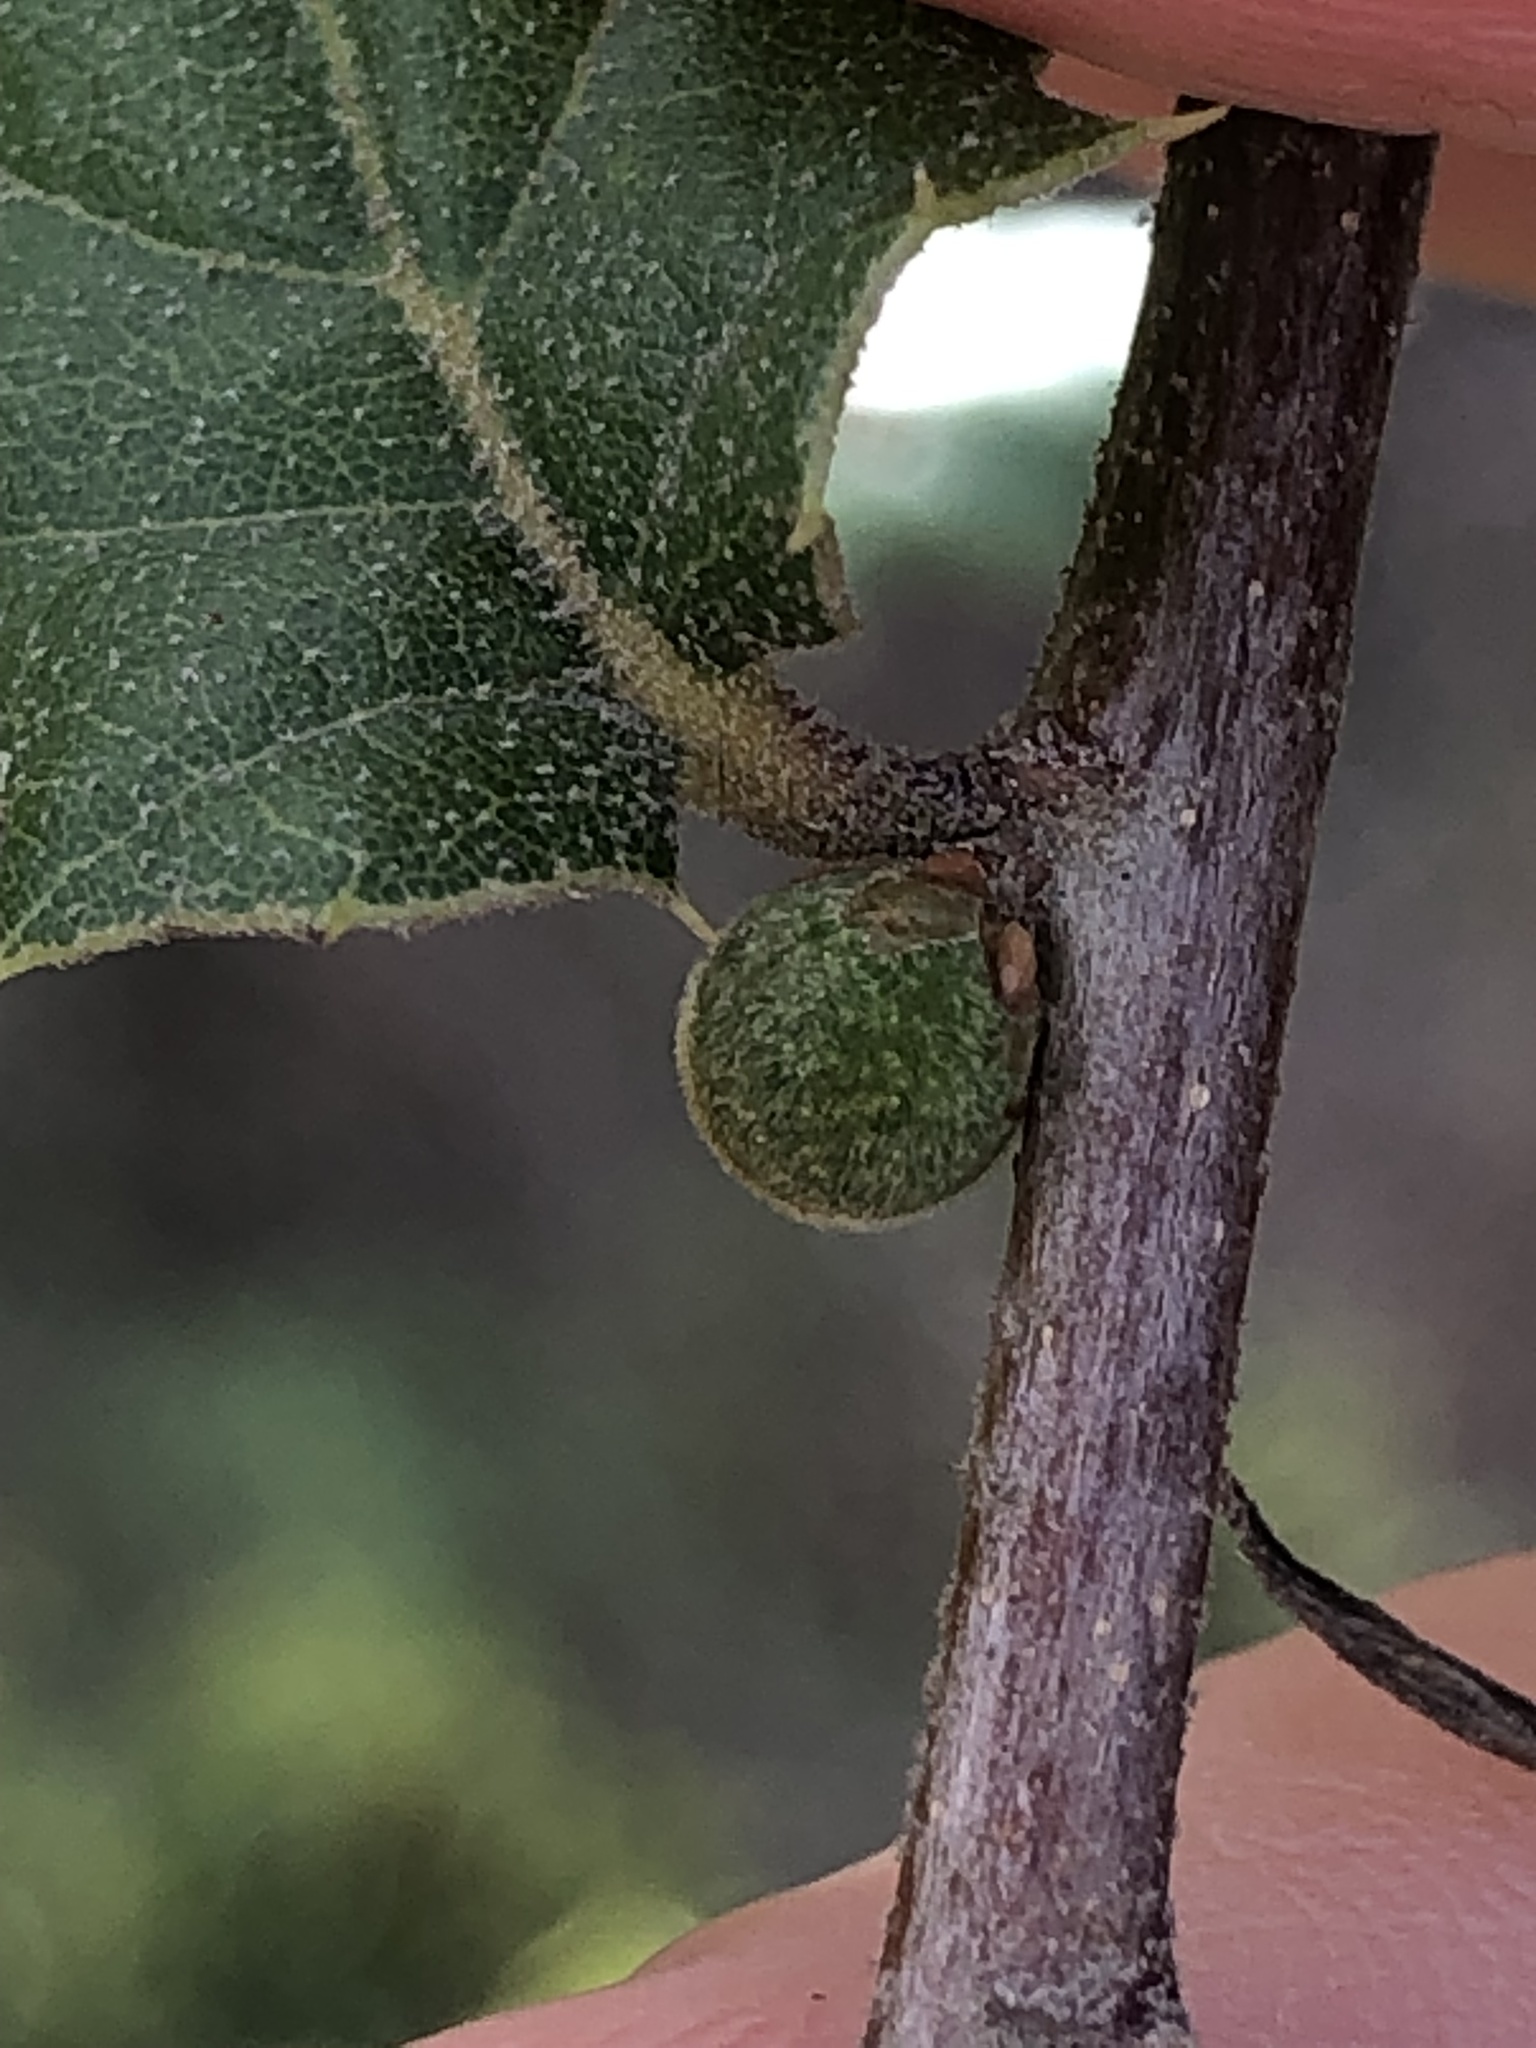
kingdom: Animalia
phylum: Arthropoda
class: Insecta
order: Hymenoptera
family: Cynipidae
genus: Callirhytis
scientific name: Callirhytis
